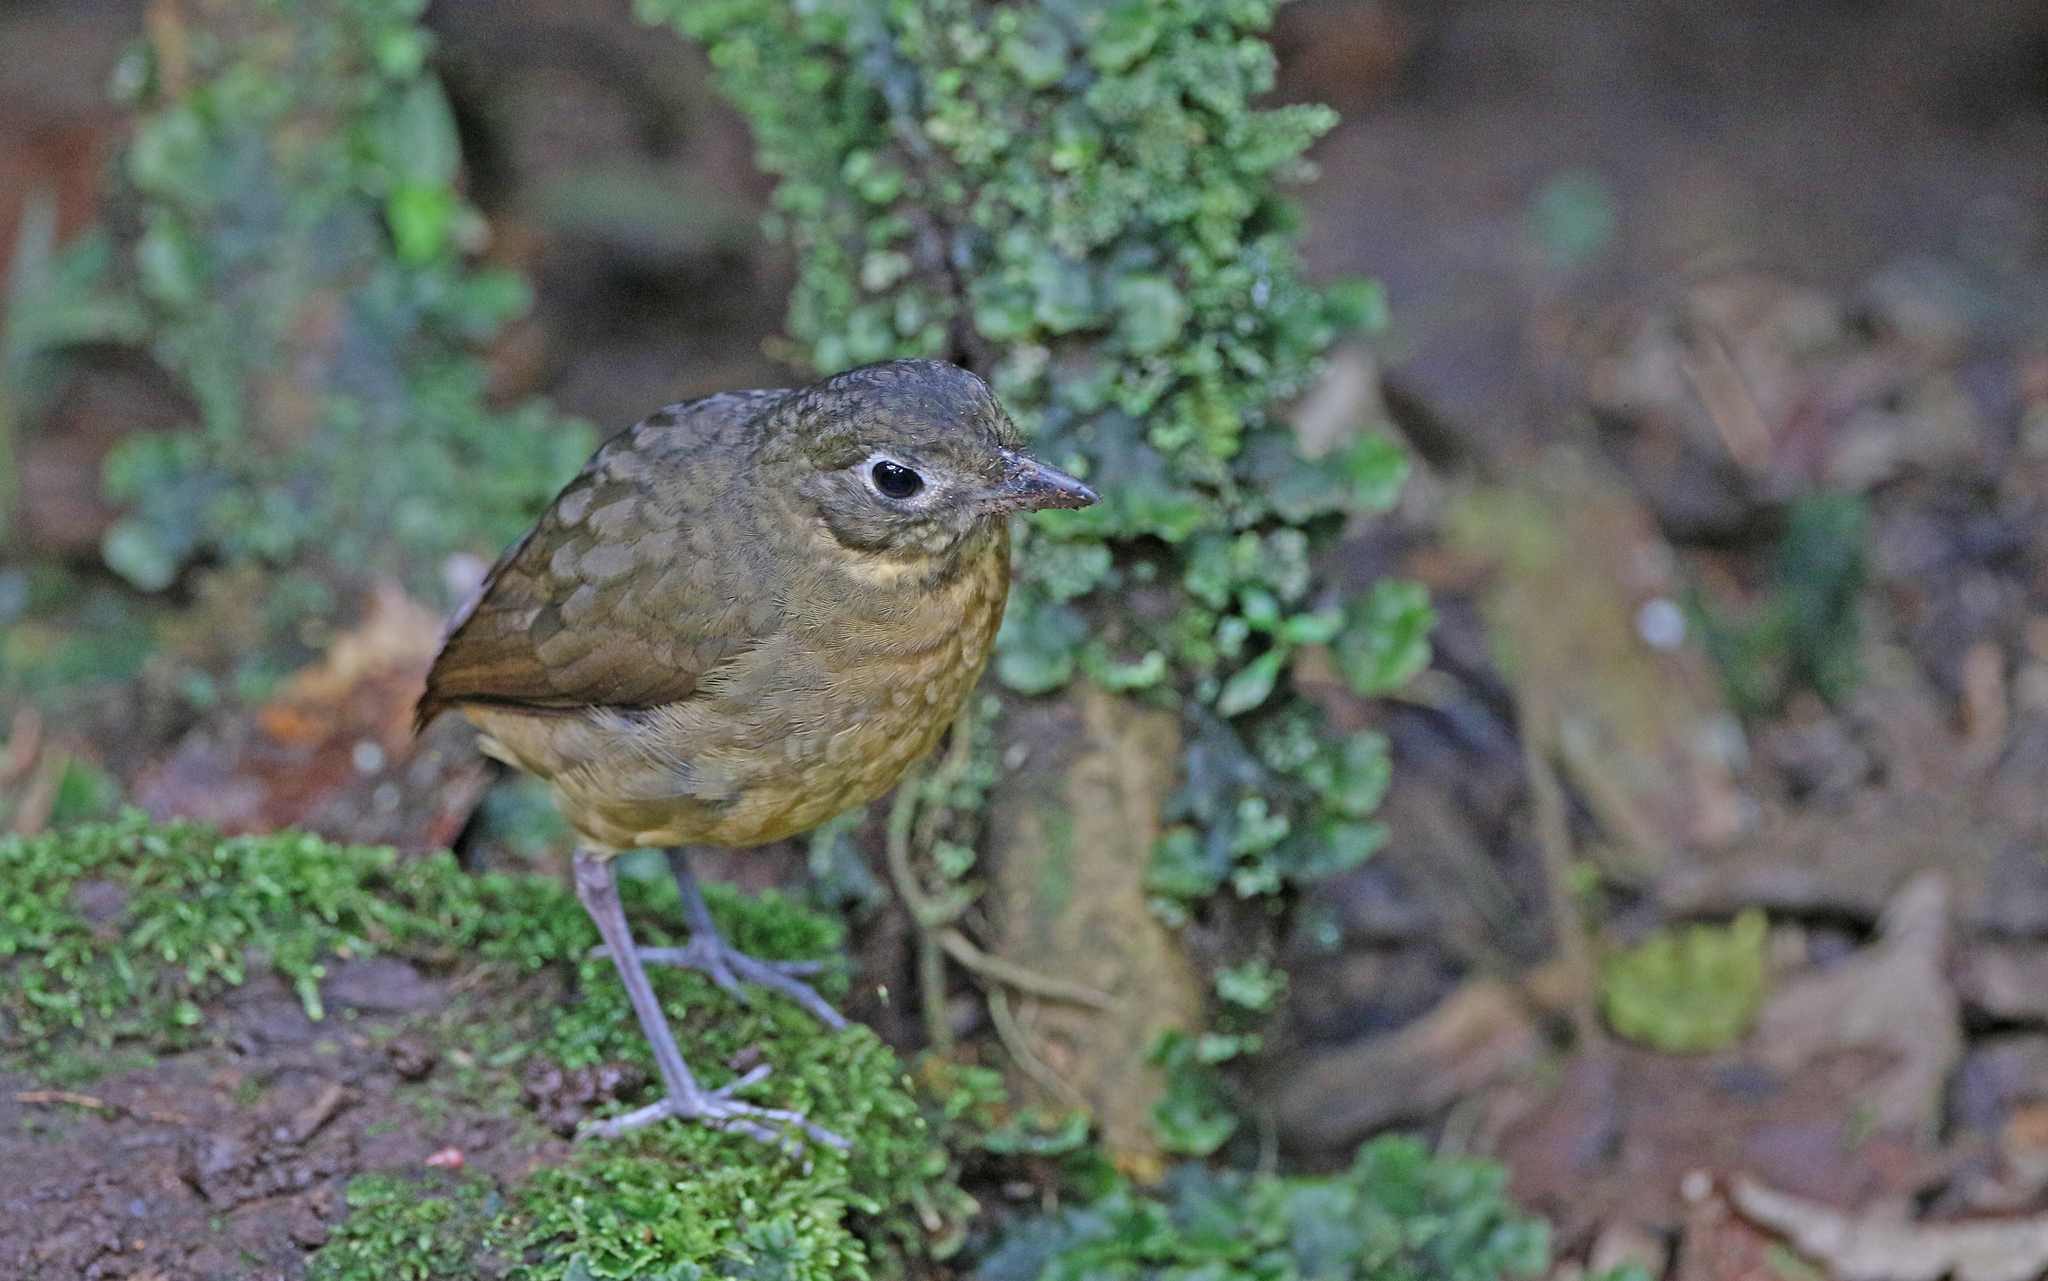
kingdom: Animalia
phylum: Chordata
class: Aves
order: Passeriformes
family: Grallariidae
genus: Grallaria
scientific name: Grallaria haplonota
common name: Plain-backed antpitta
